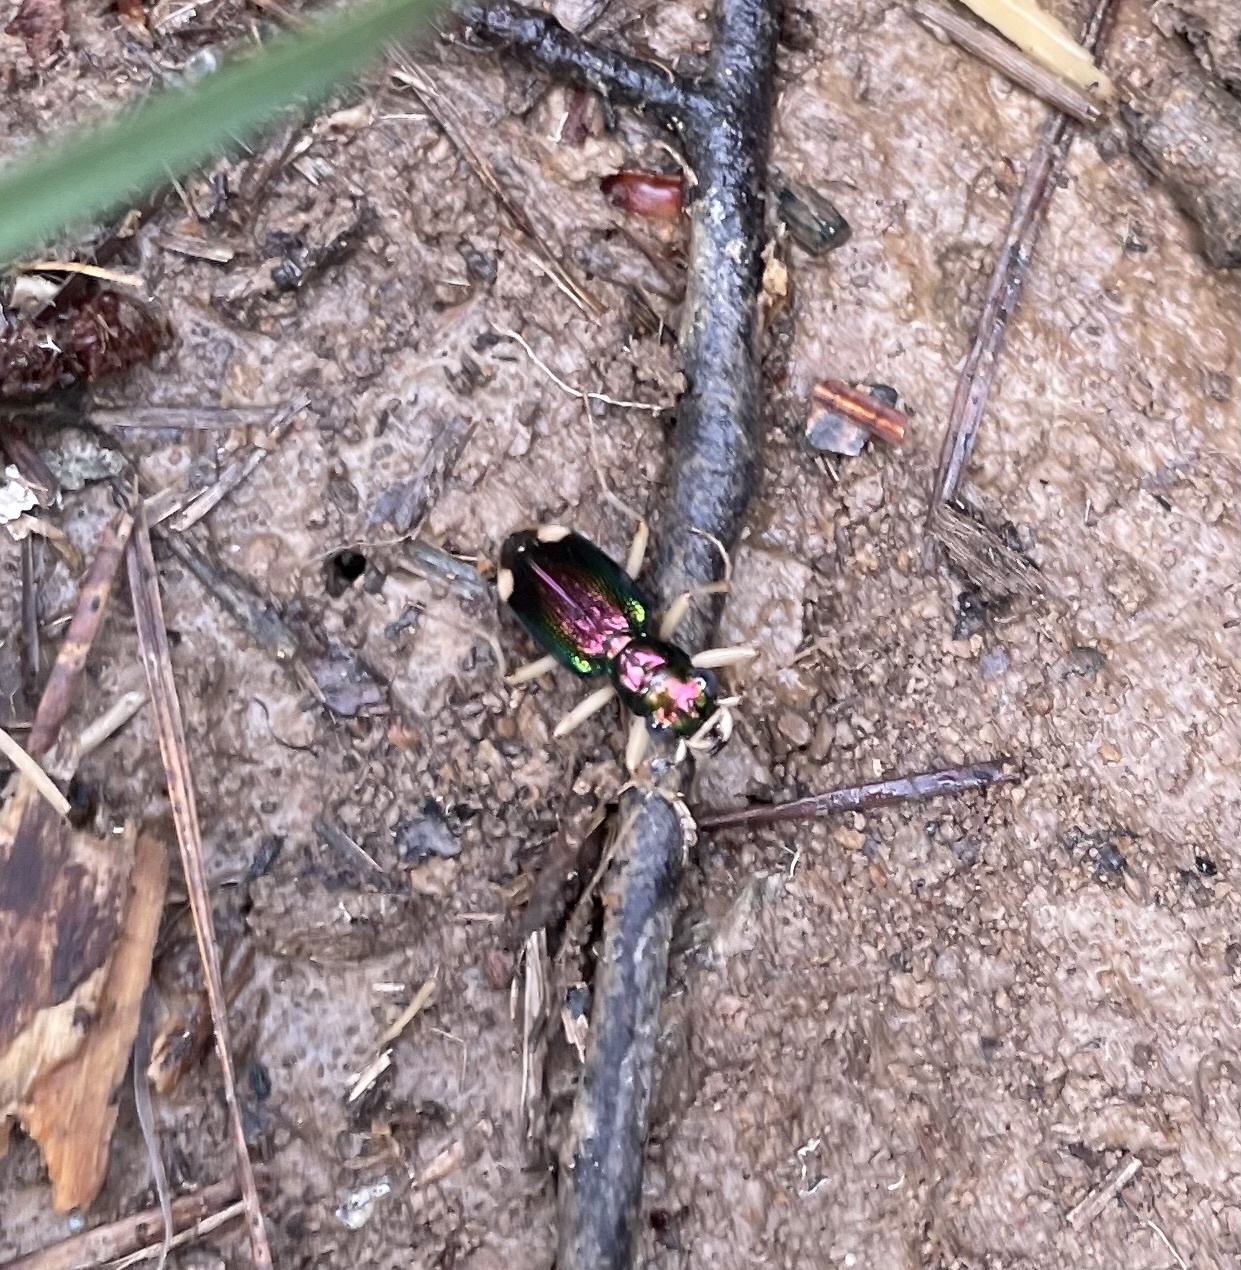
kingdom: Animalia
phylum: Arthropoda
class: Insecta
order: Coleoptera
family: Carabidae
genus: Tetracha
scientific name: Tetracha carolina
